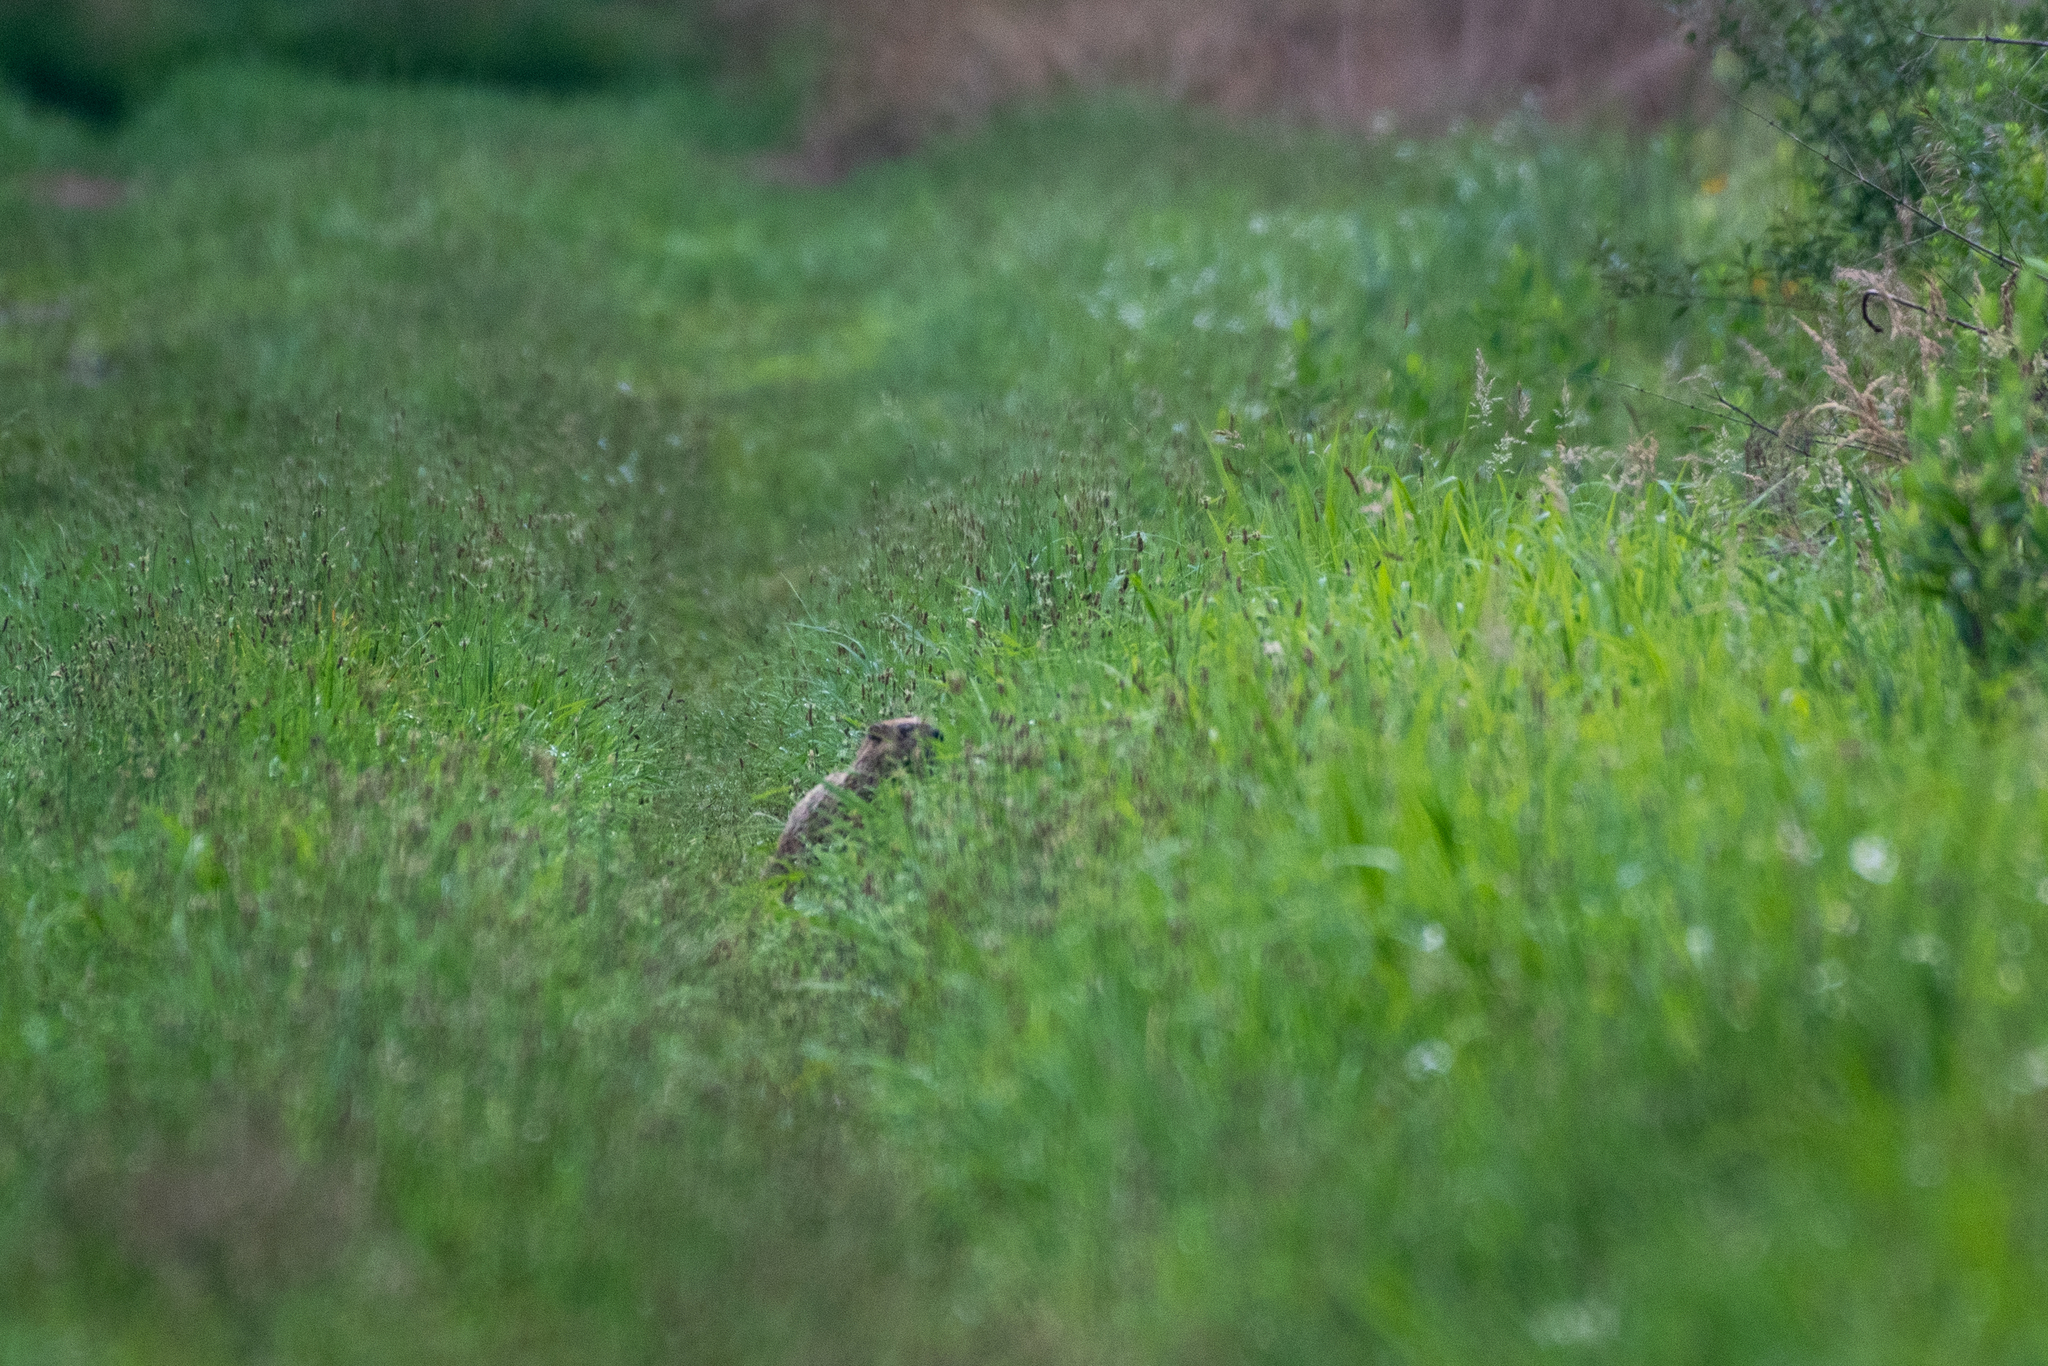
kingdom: Animalia
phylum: Chordata
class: Mammalia
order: Rodentia
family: Sciuridae
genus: Marmota
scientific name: Marmota monax
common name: Groundhog
